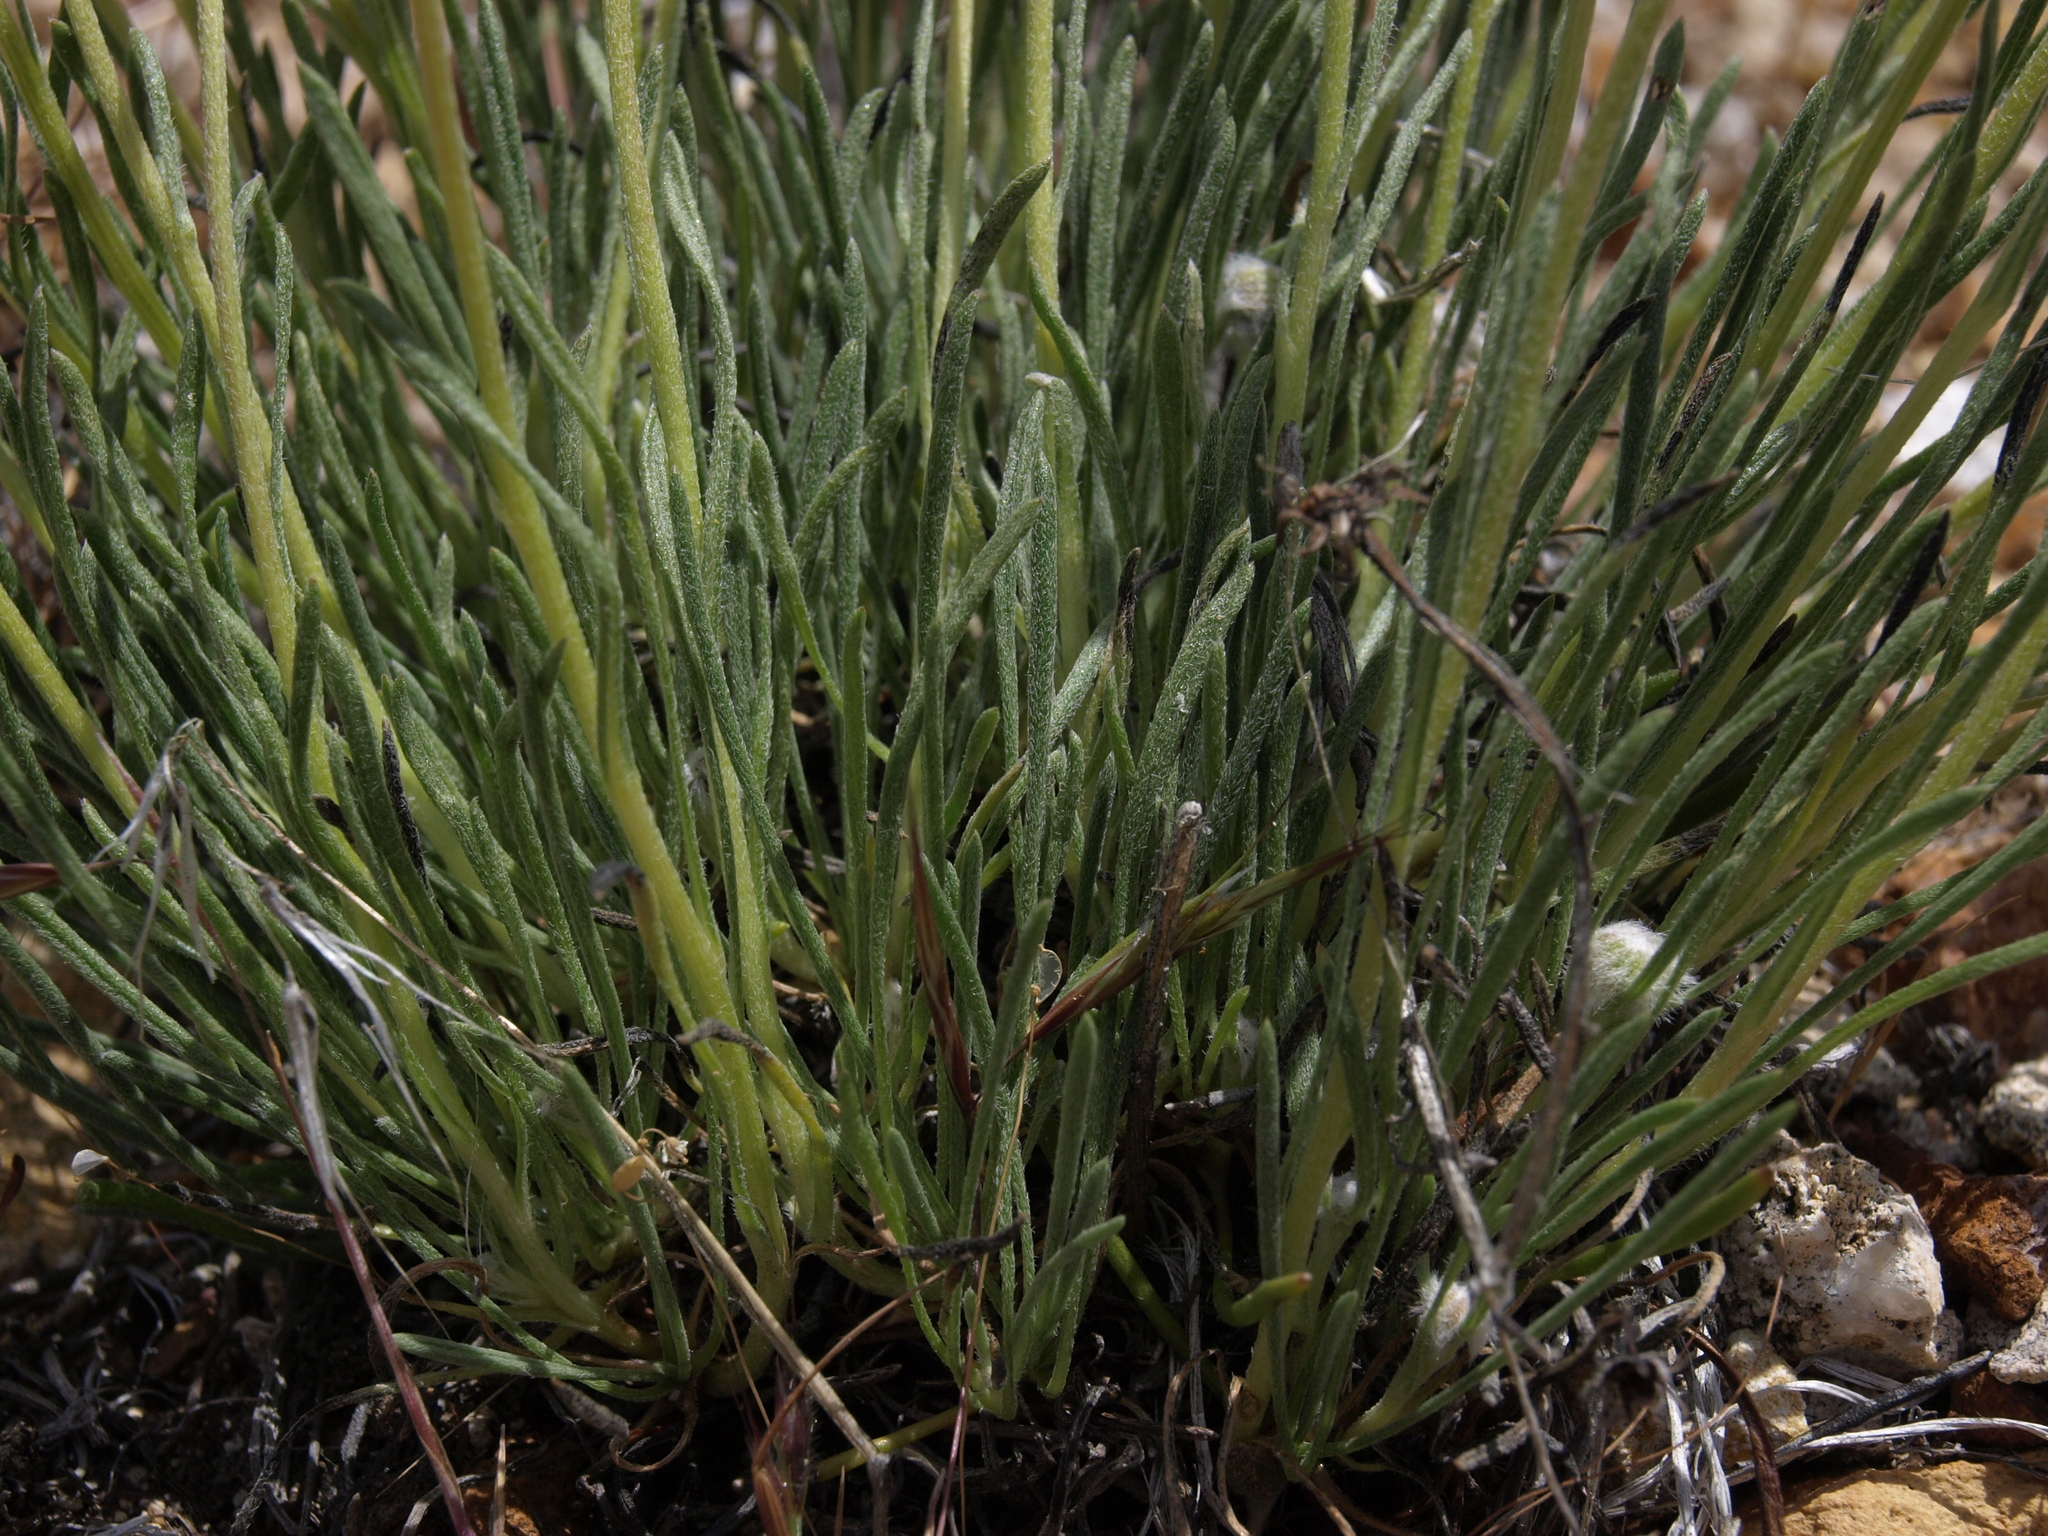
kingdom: Plantae
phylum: Tracheophyta
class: Magnoliopsida
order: Asterales
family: Asteraceae
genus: Erigeron
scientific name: Erigeron bloomeri
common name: Bloomer's fleabane
